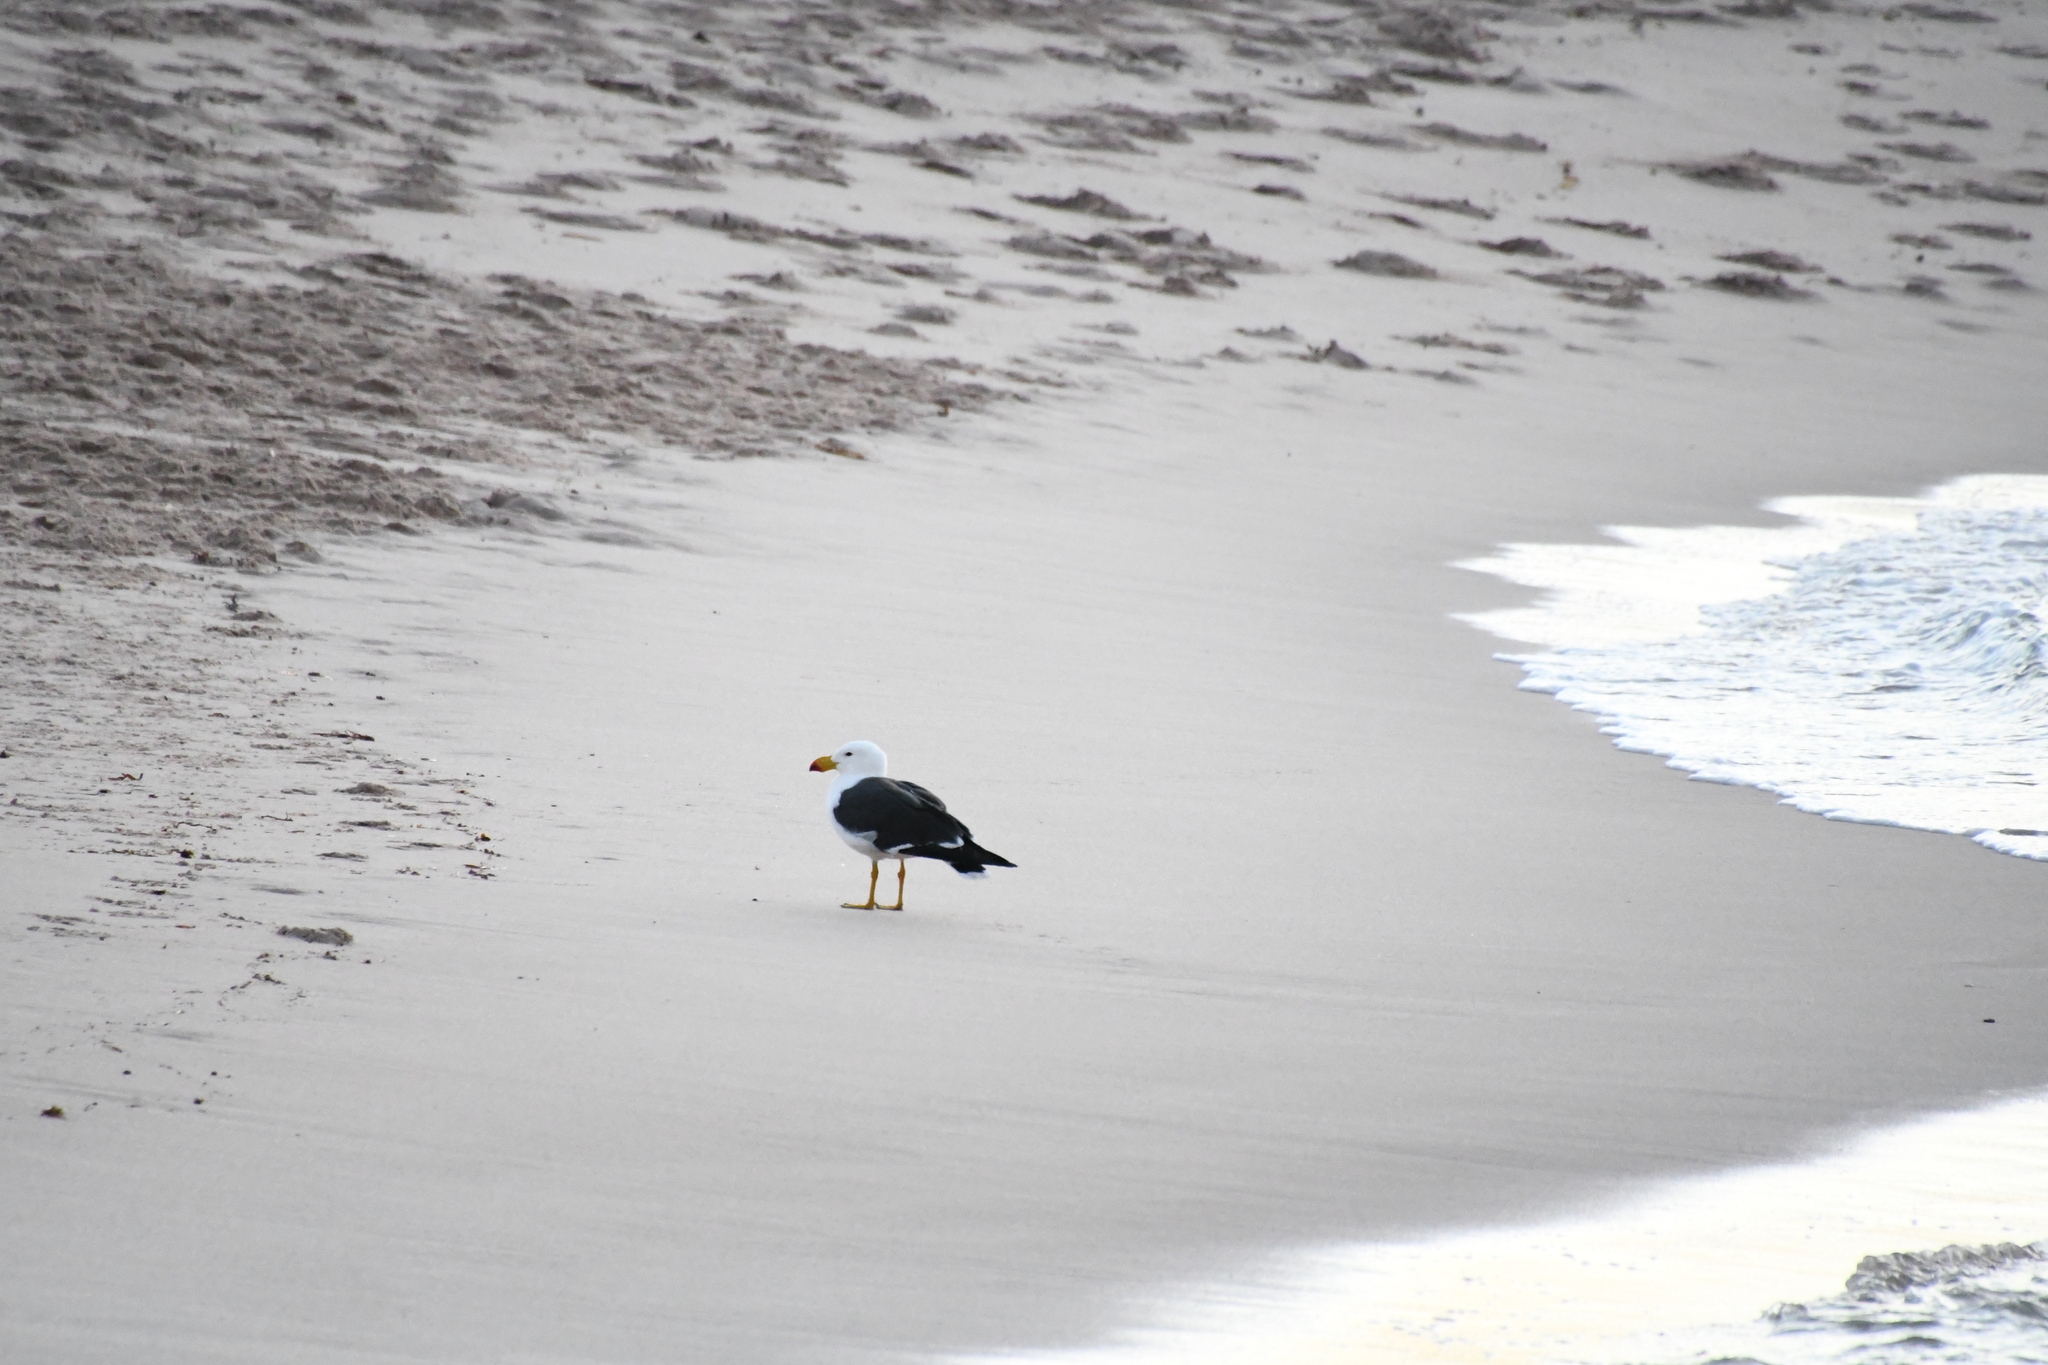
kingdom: Animalia
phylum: Chordata
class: Aves
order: Charadriiformes
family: Laridae
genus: Larus
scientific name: Larus pacificus
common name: Pacific gull
